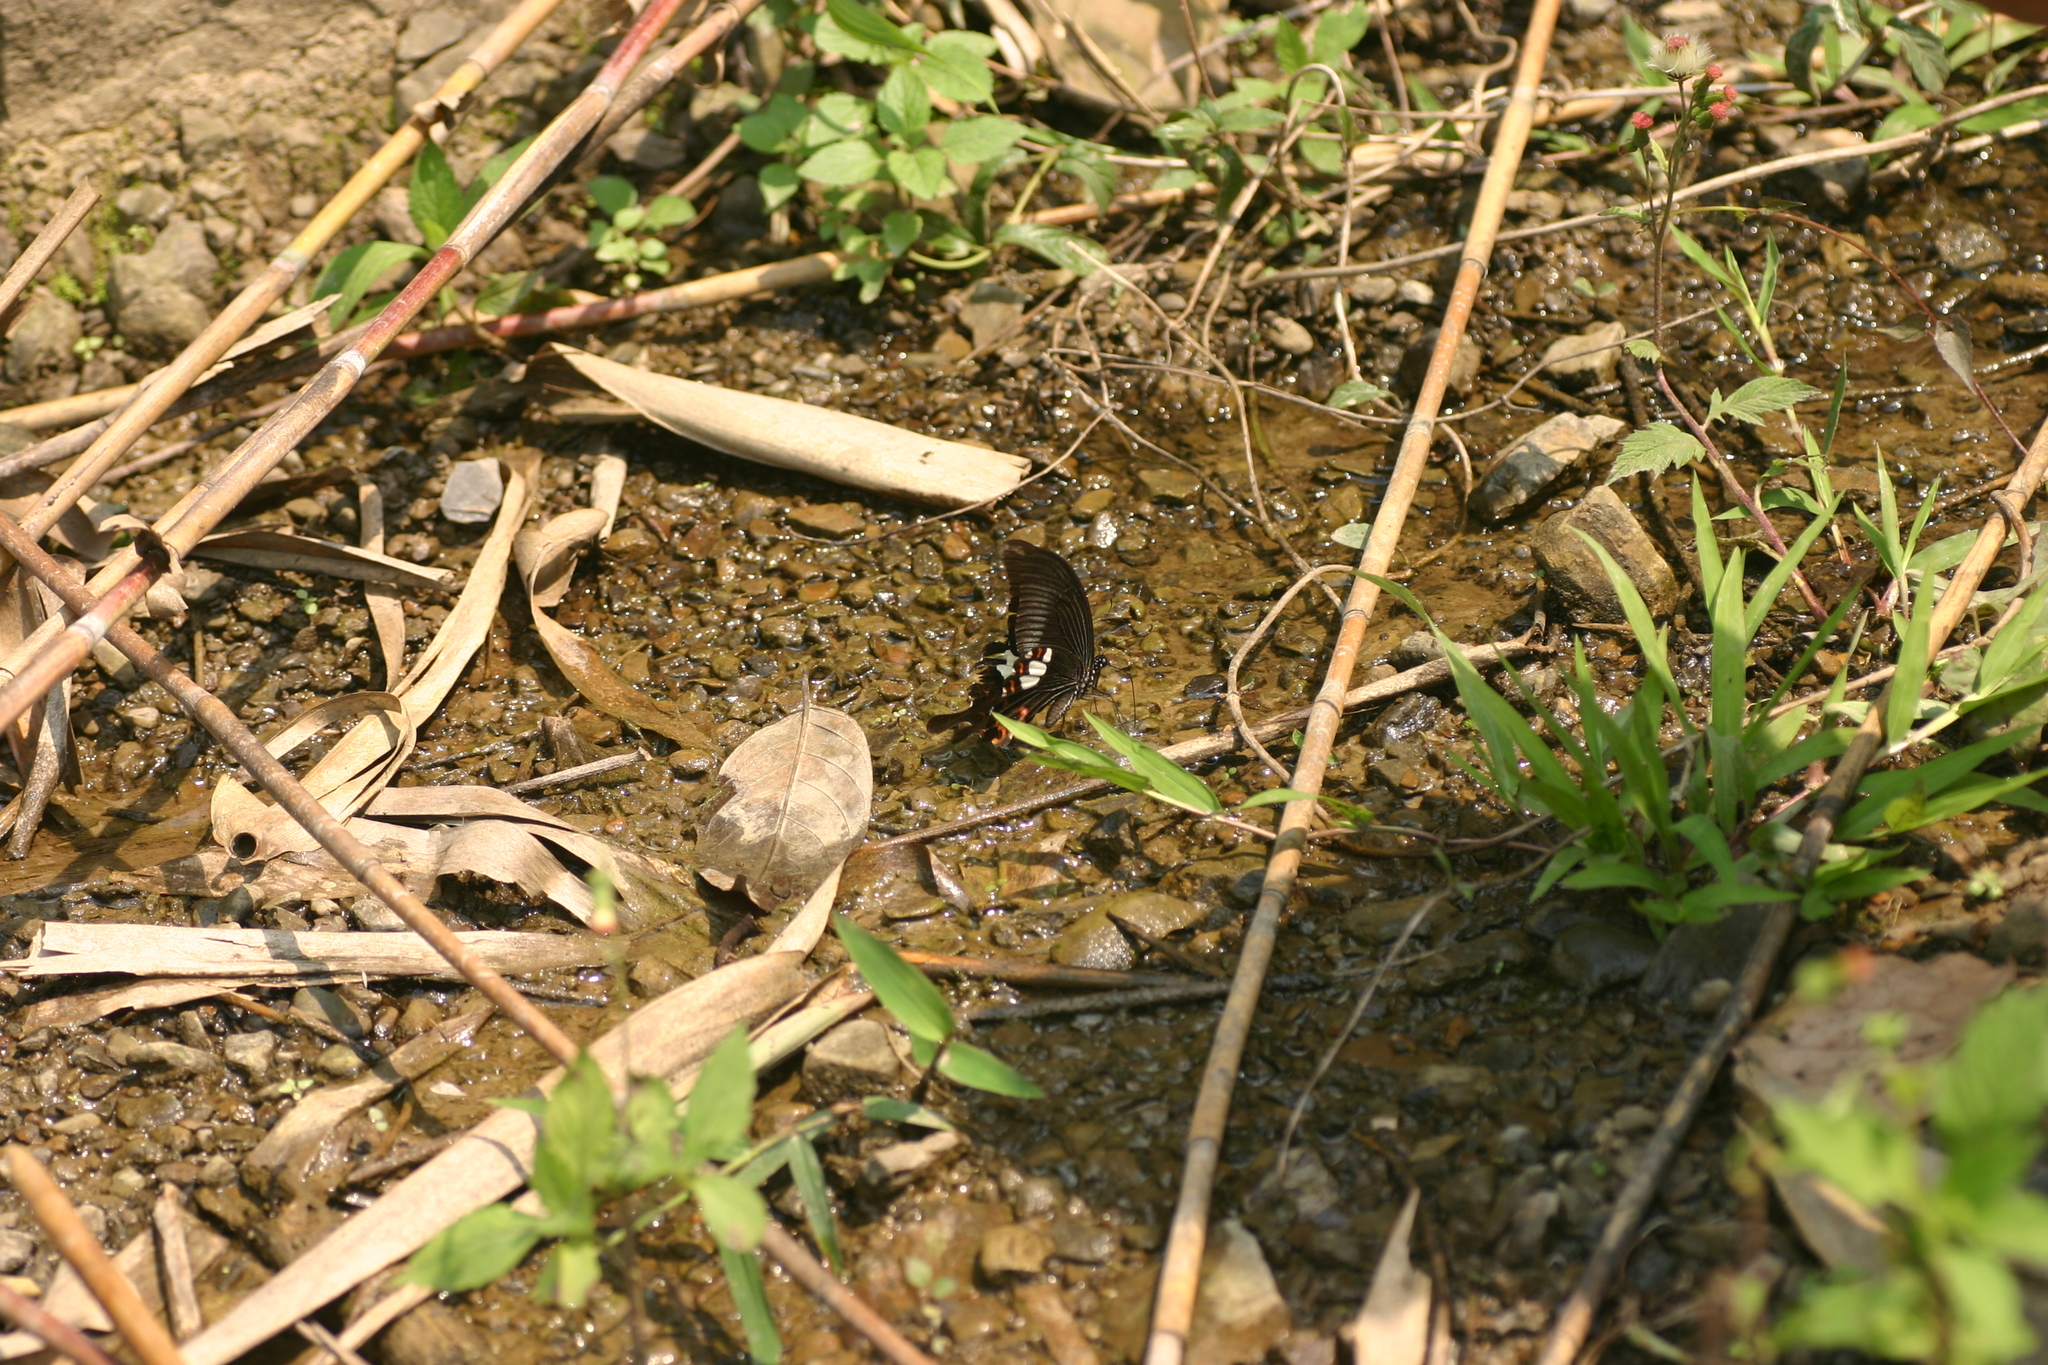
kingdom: Animalia
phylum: Arthropoda
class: Insecta
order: Lepidoptera
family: Papilionidae
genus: Papilio
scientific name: Papilio helenus
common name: Red helen
